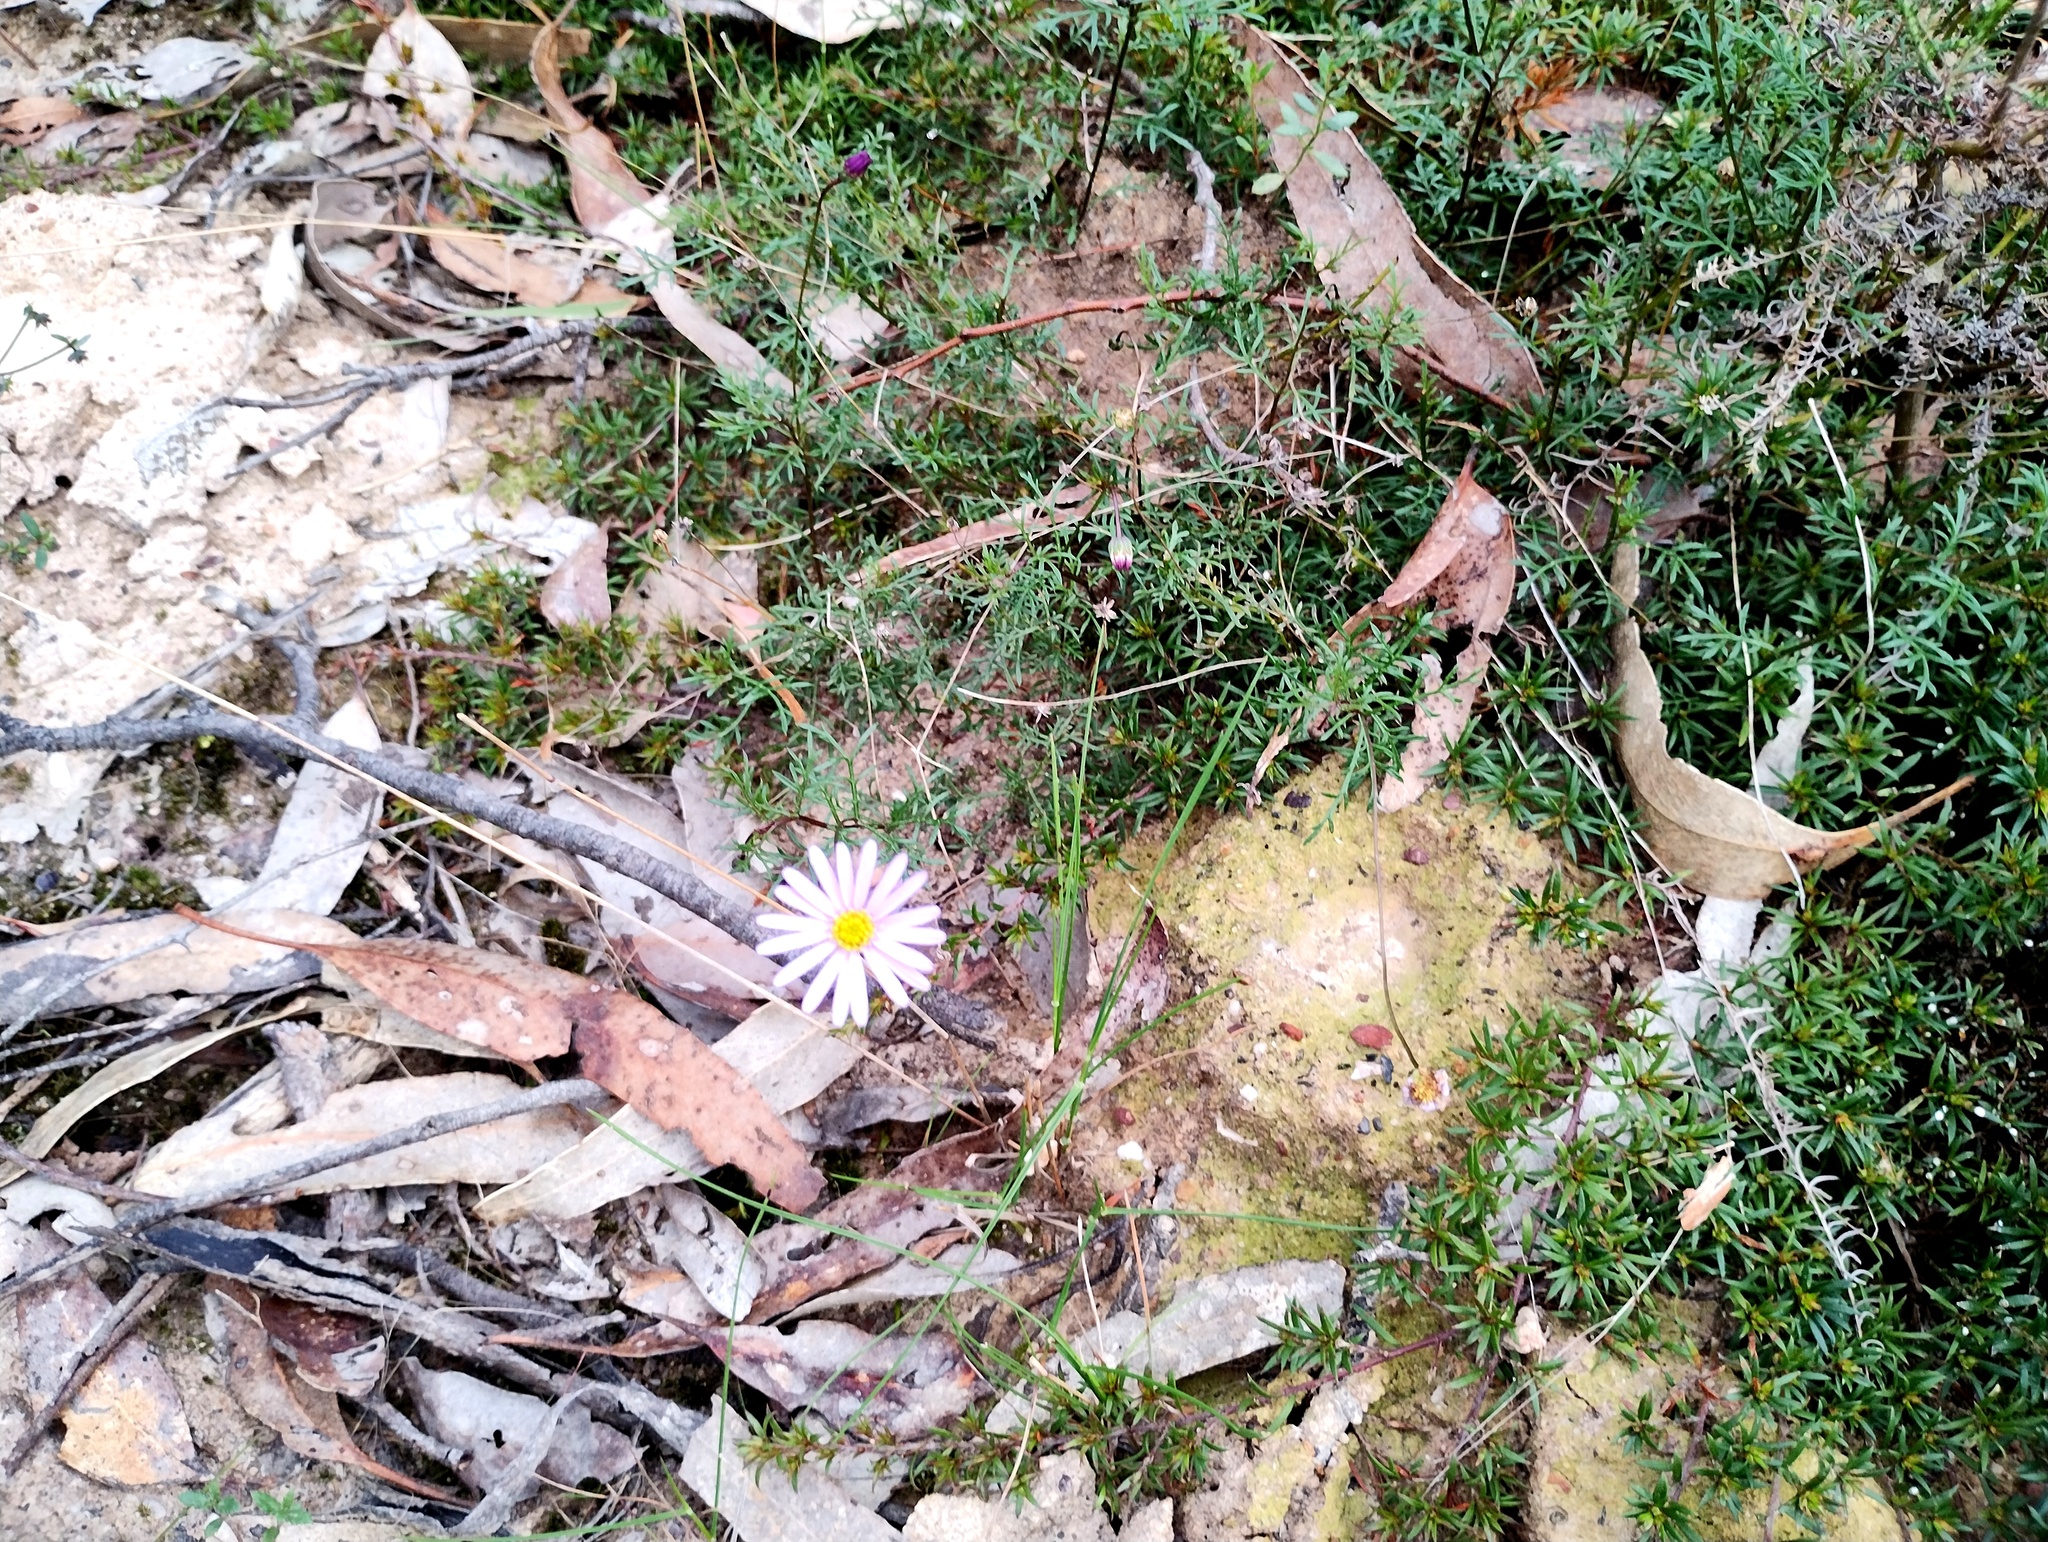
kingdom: Plantae
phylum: Tracheophyta
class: Magnoliopsida
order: Asterales
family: Asteraceae
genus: Brachyscome
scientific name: Brachyscome multifida
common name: Cut-leaf daisy
